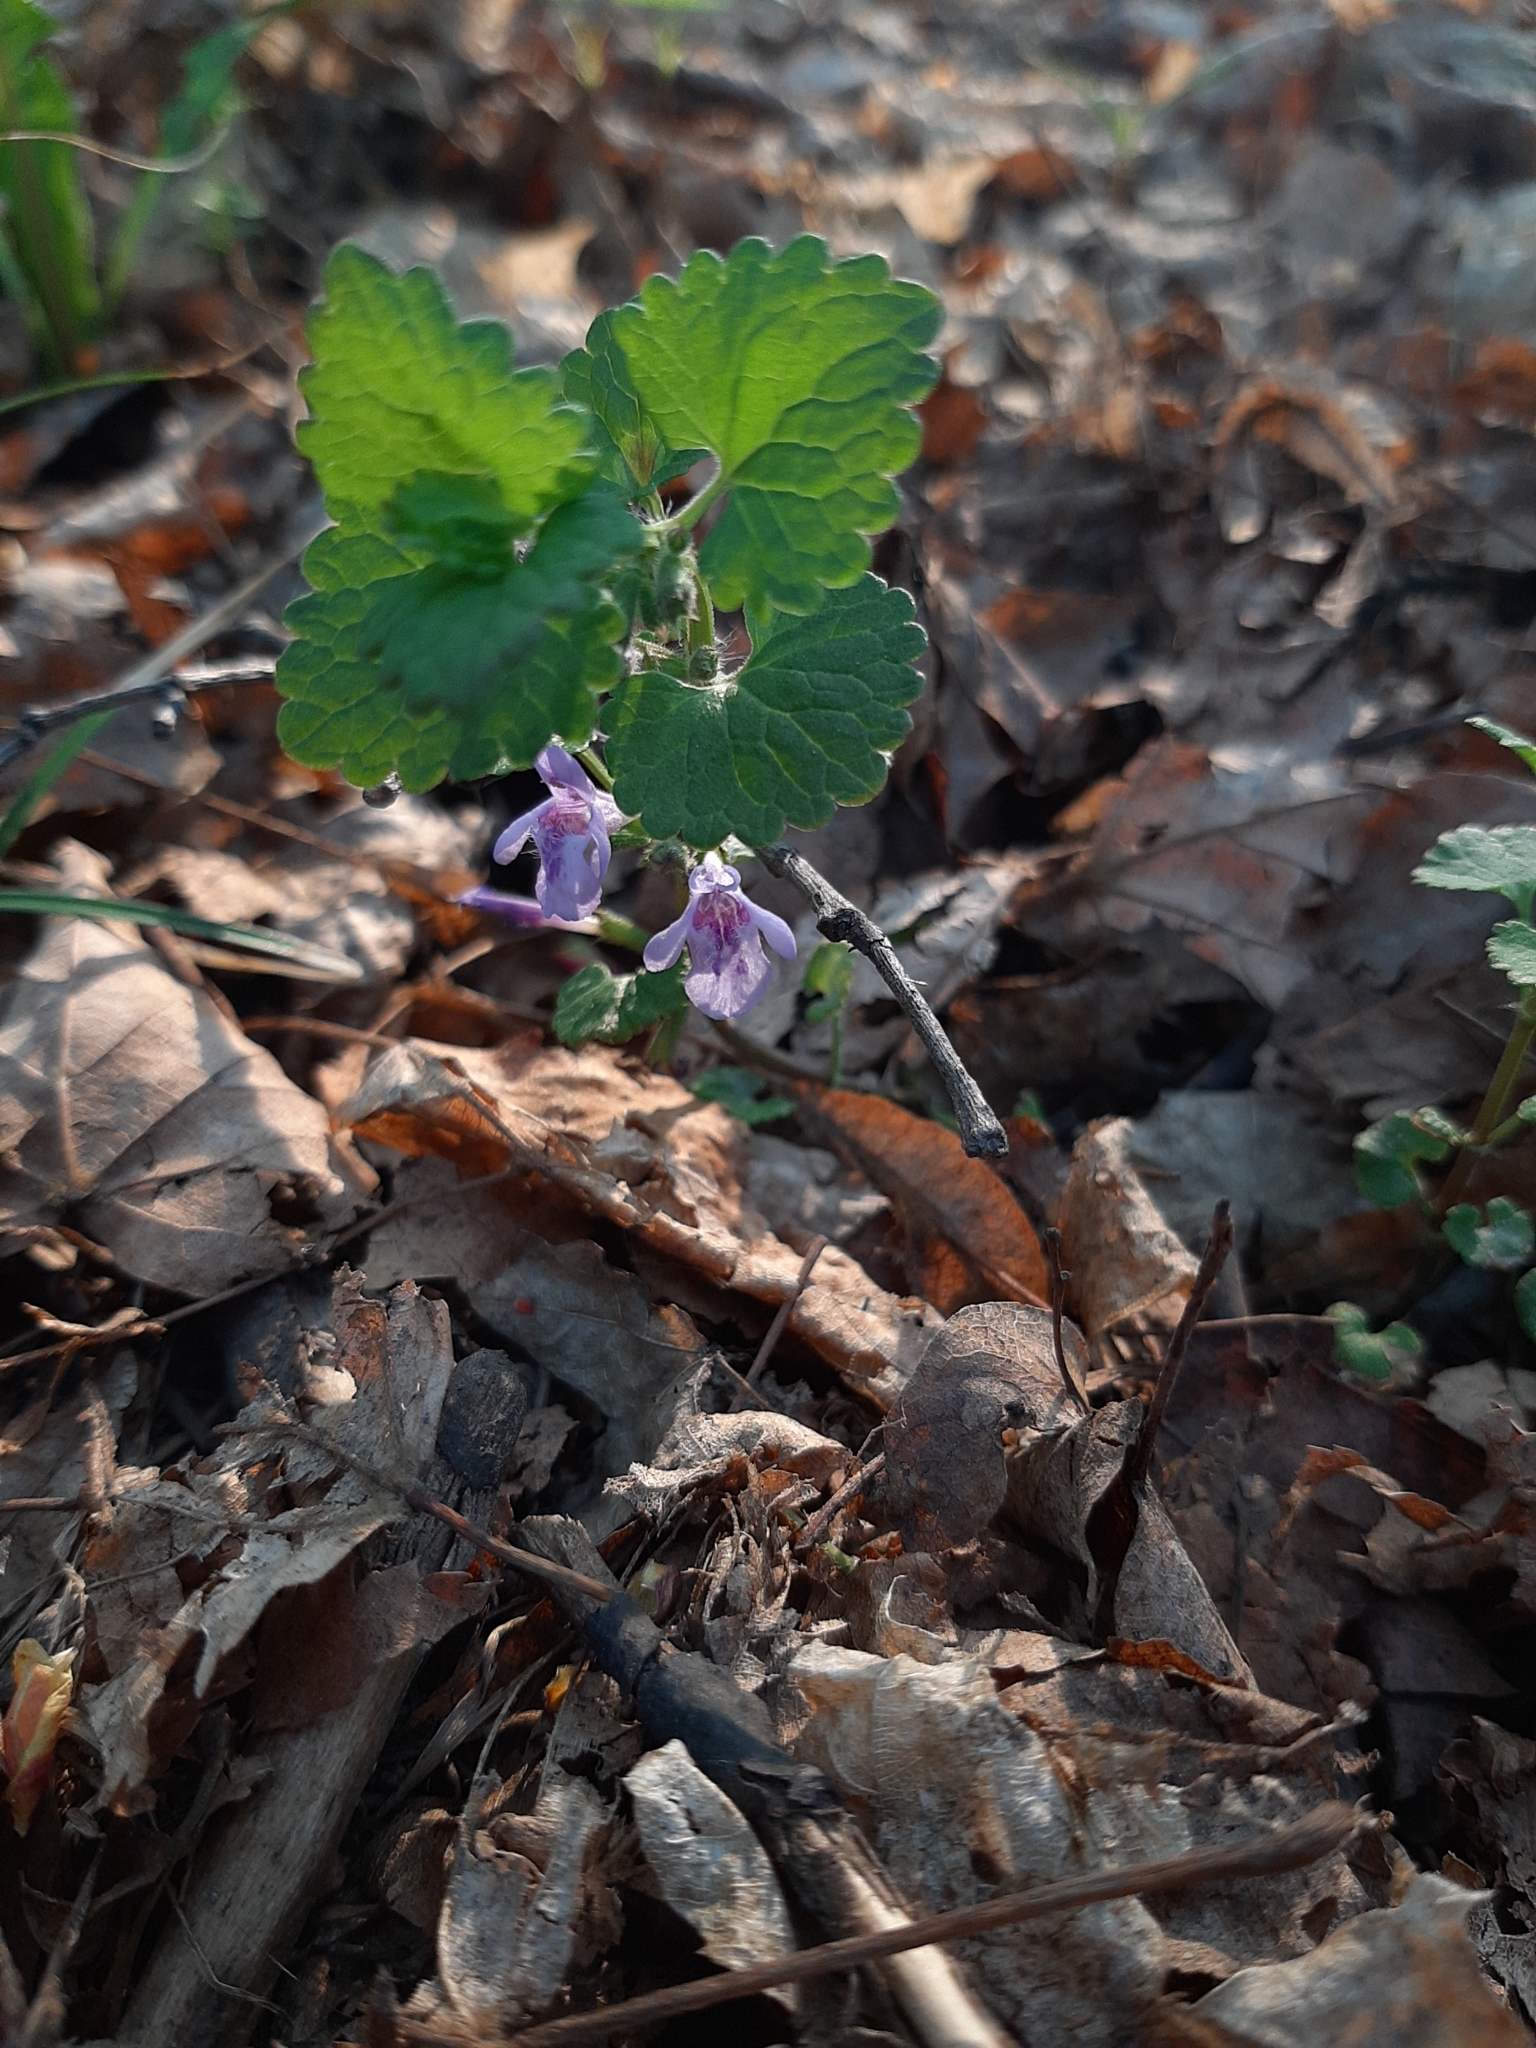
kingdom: Plantae
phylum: Tracheophyta
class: Magnoliopsida
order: Lamiales
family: Lamiaceae
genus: Glechoma
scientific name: Glechoma hederacea
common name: Ground ivy
